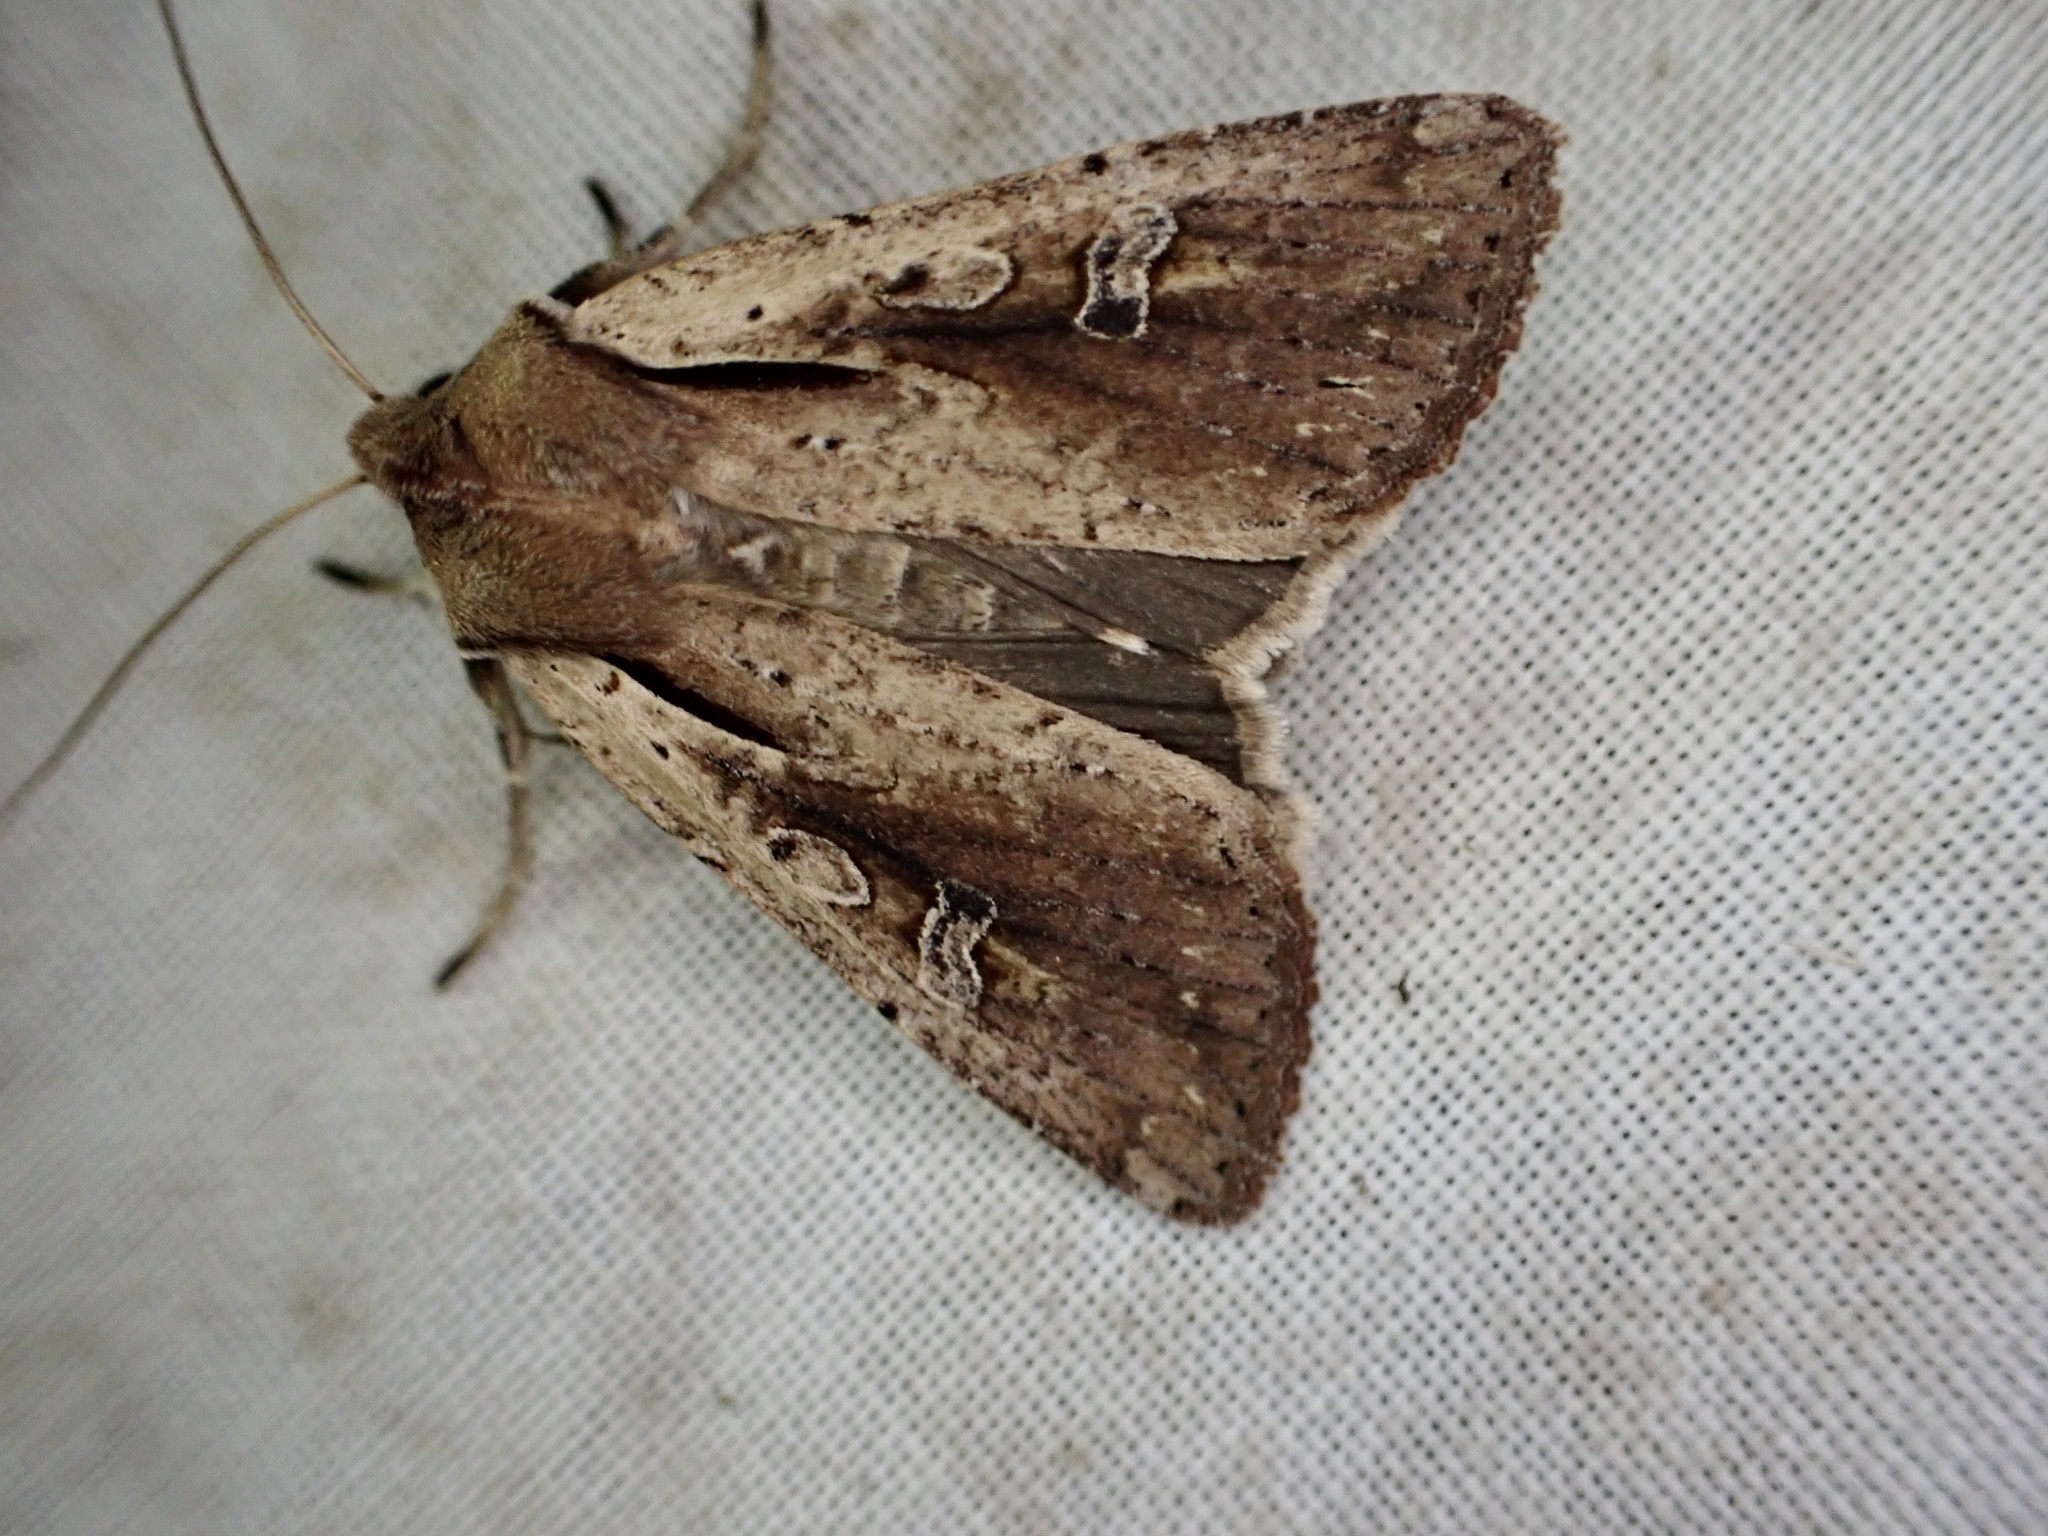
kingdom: Animalia
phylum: Arthropoda
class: Insecta
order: Lepidoptera
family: Noctuidae
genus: Ichneutica
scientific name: Ichneutica atristriga
